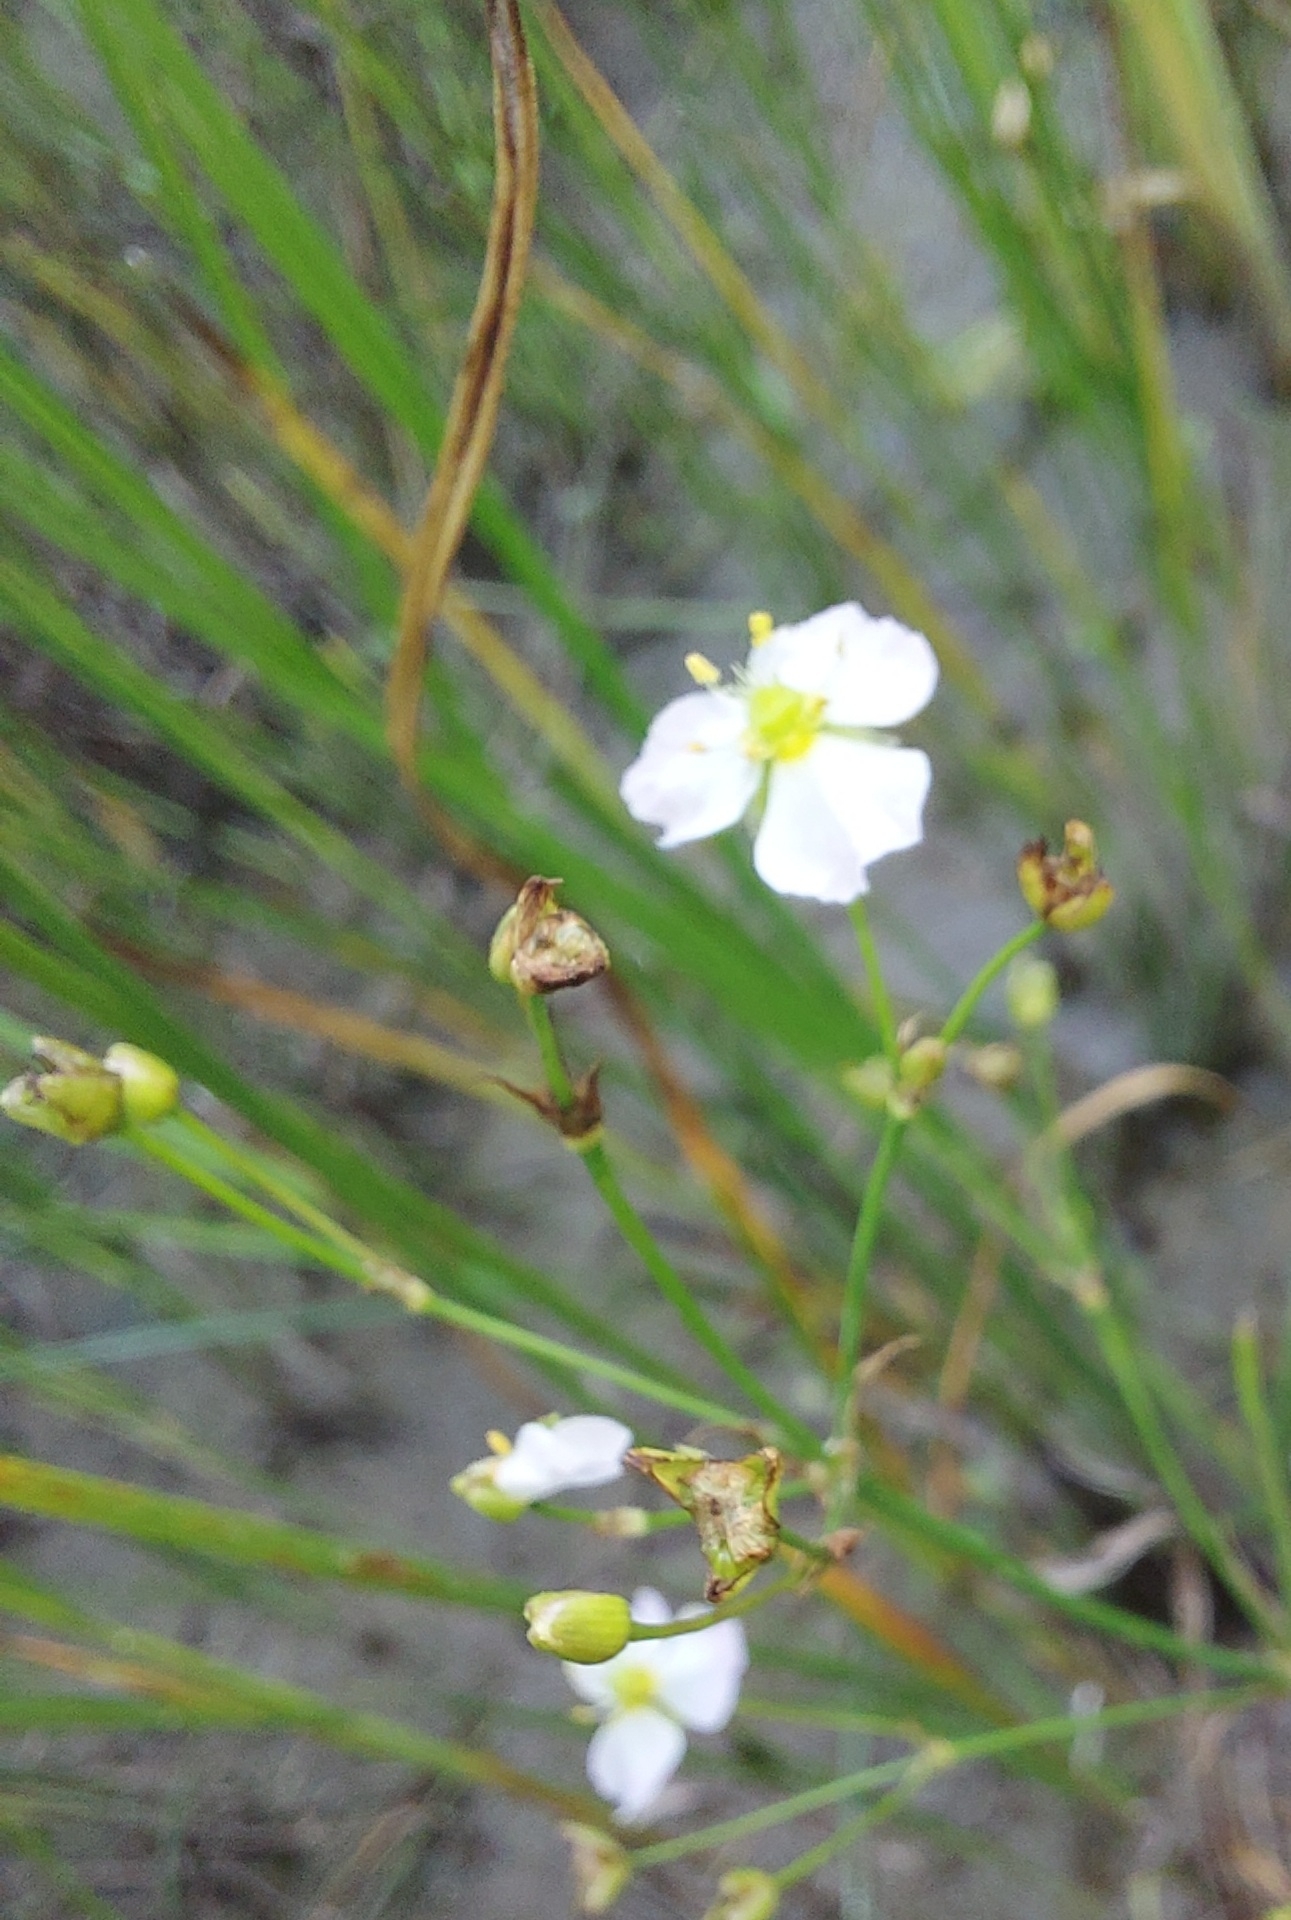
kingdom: Plantae
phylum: Tracheophyta
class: Liliopsida
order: Alismatales
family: Alismataceae
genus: Alisma
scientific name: Alisma plantago-aquatica
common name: Water-plantain
